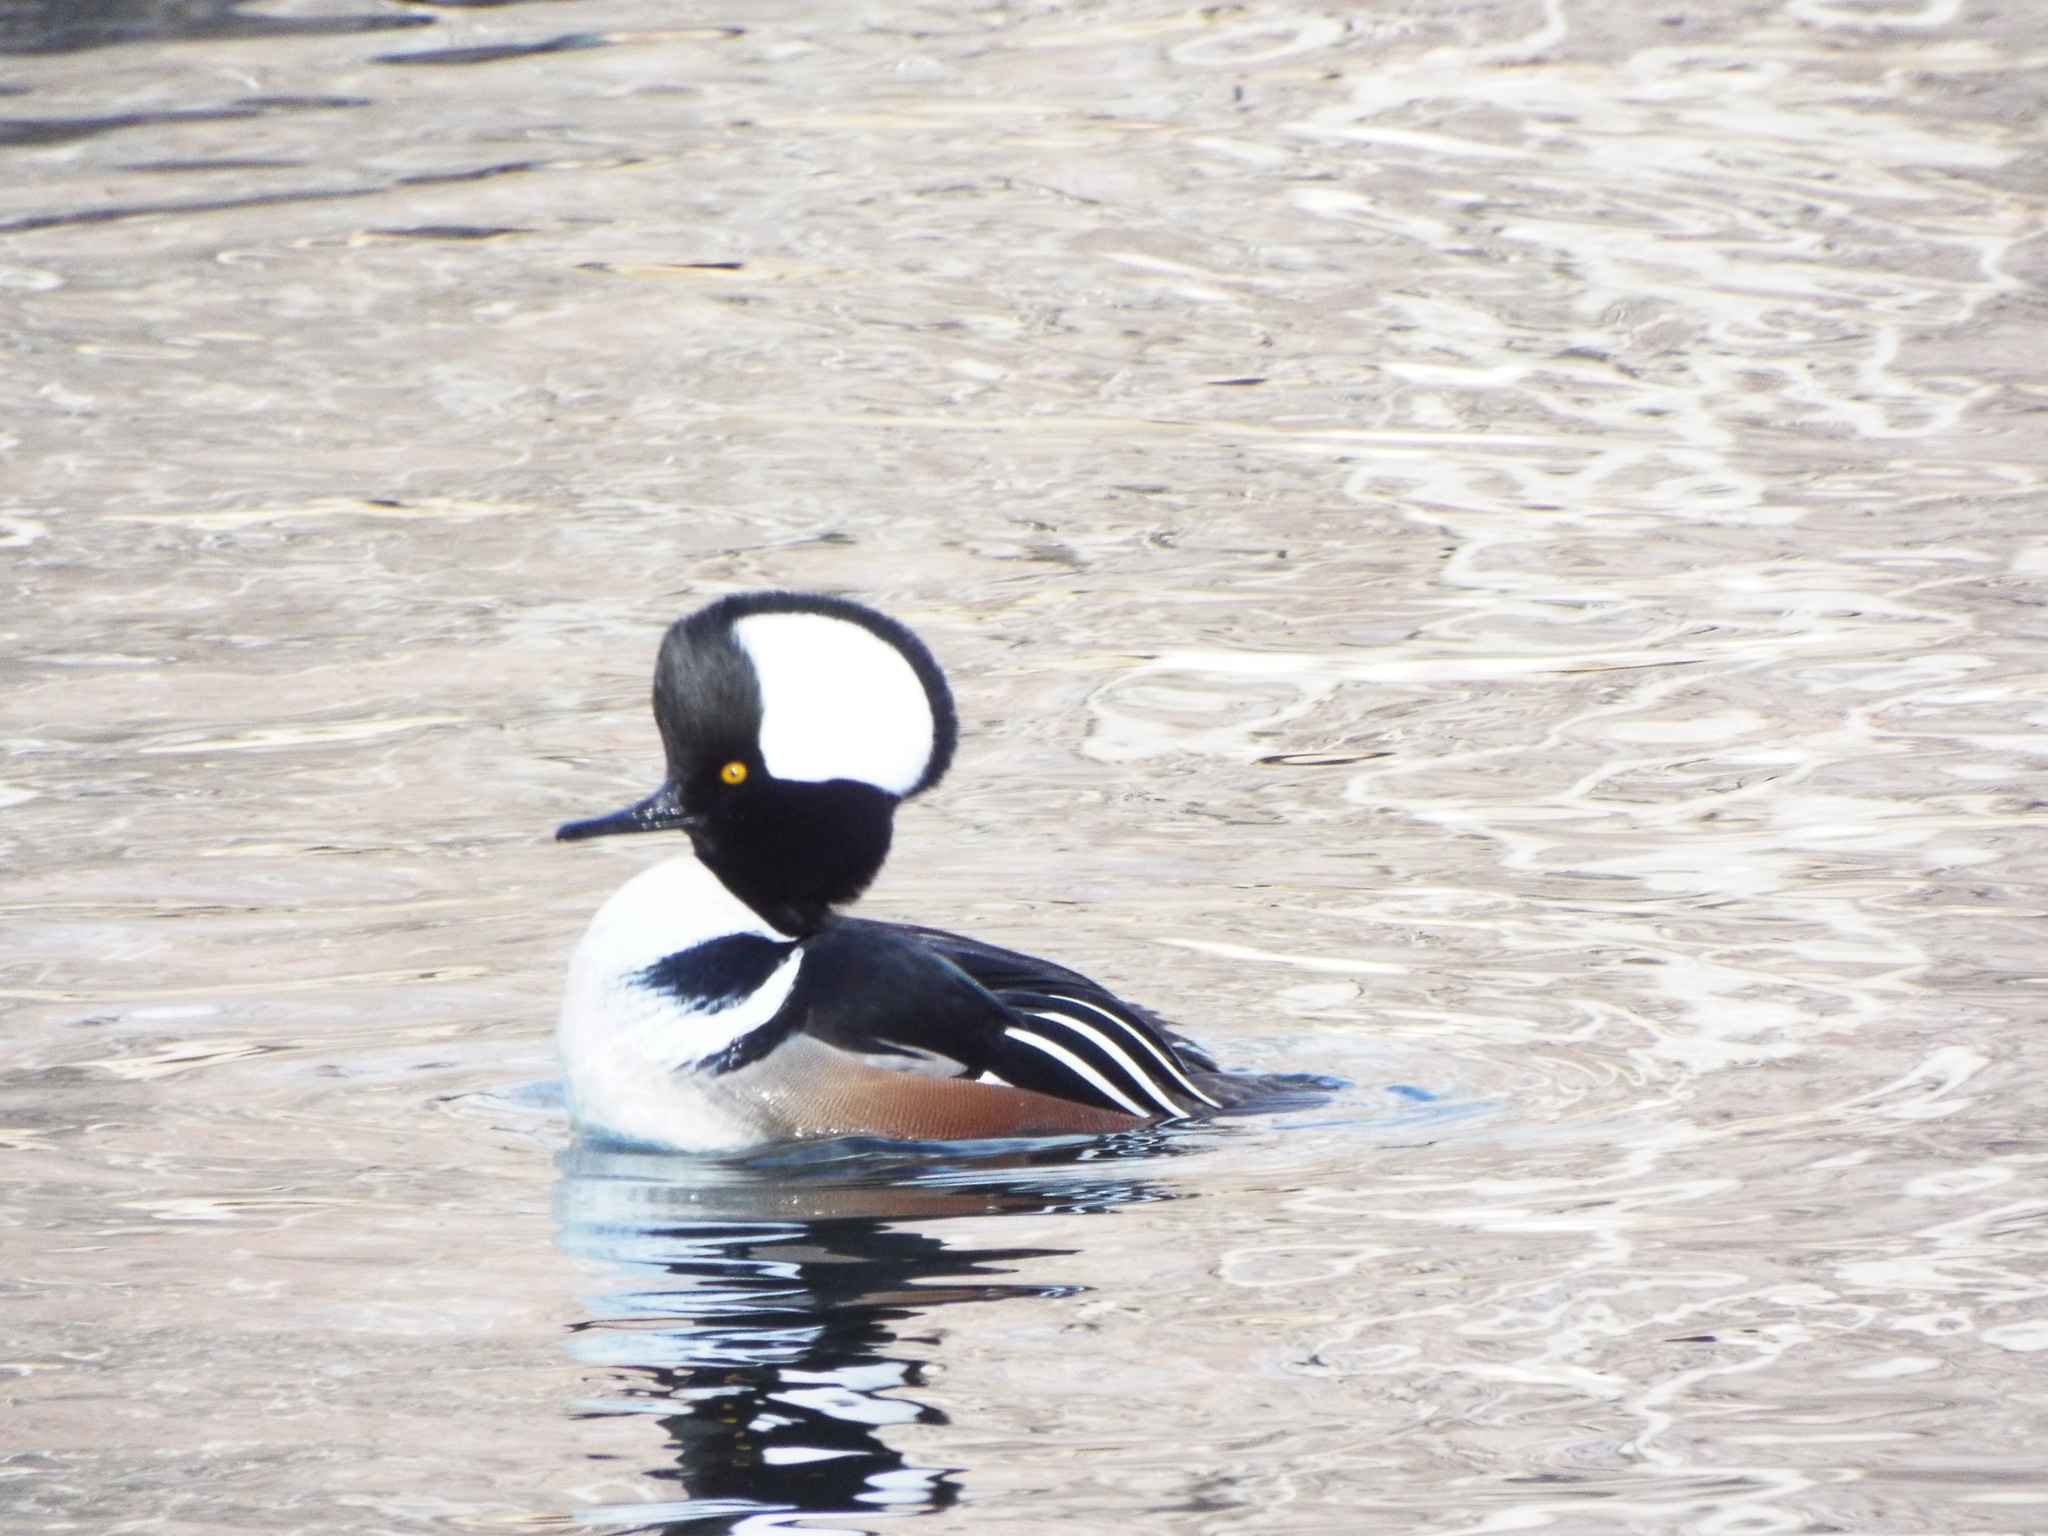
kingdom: Animalia
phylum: Chordata
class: Aves
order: Anseriformes
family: Anatidae
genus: Lophodytes
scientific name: Lophodytes cucullatus
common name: Hooded merganser
